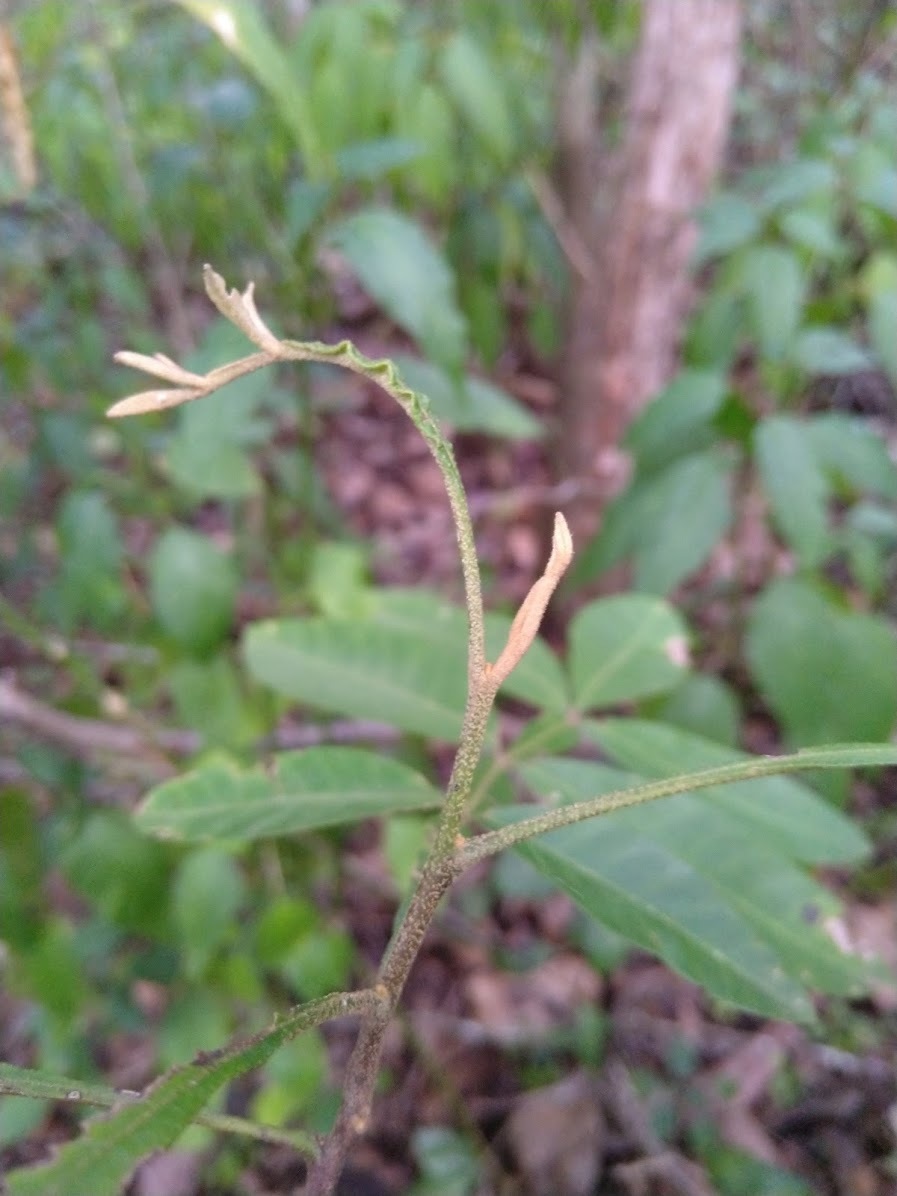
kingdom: Plantae
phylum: Tracheophyta
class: Magnoliopsida
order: Sapindales
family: Sapindaceae
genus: Cossinia
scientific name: Cossinia australiana
